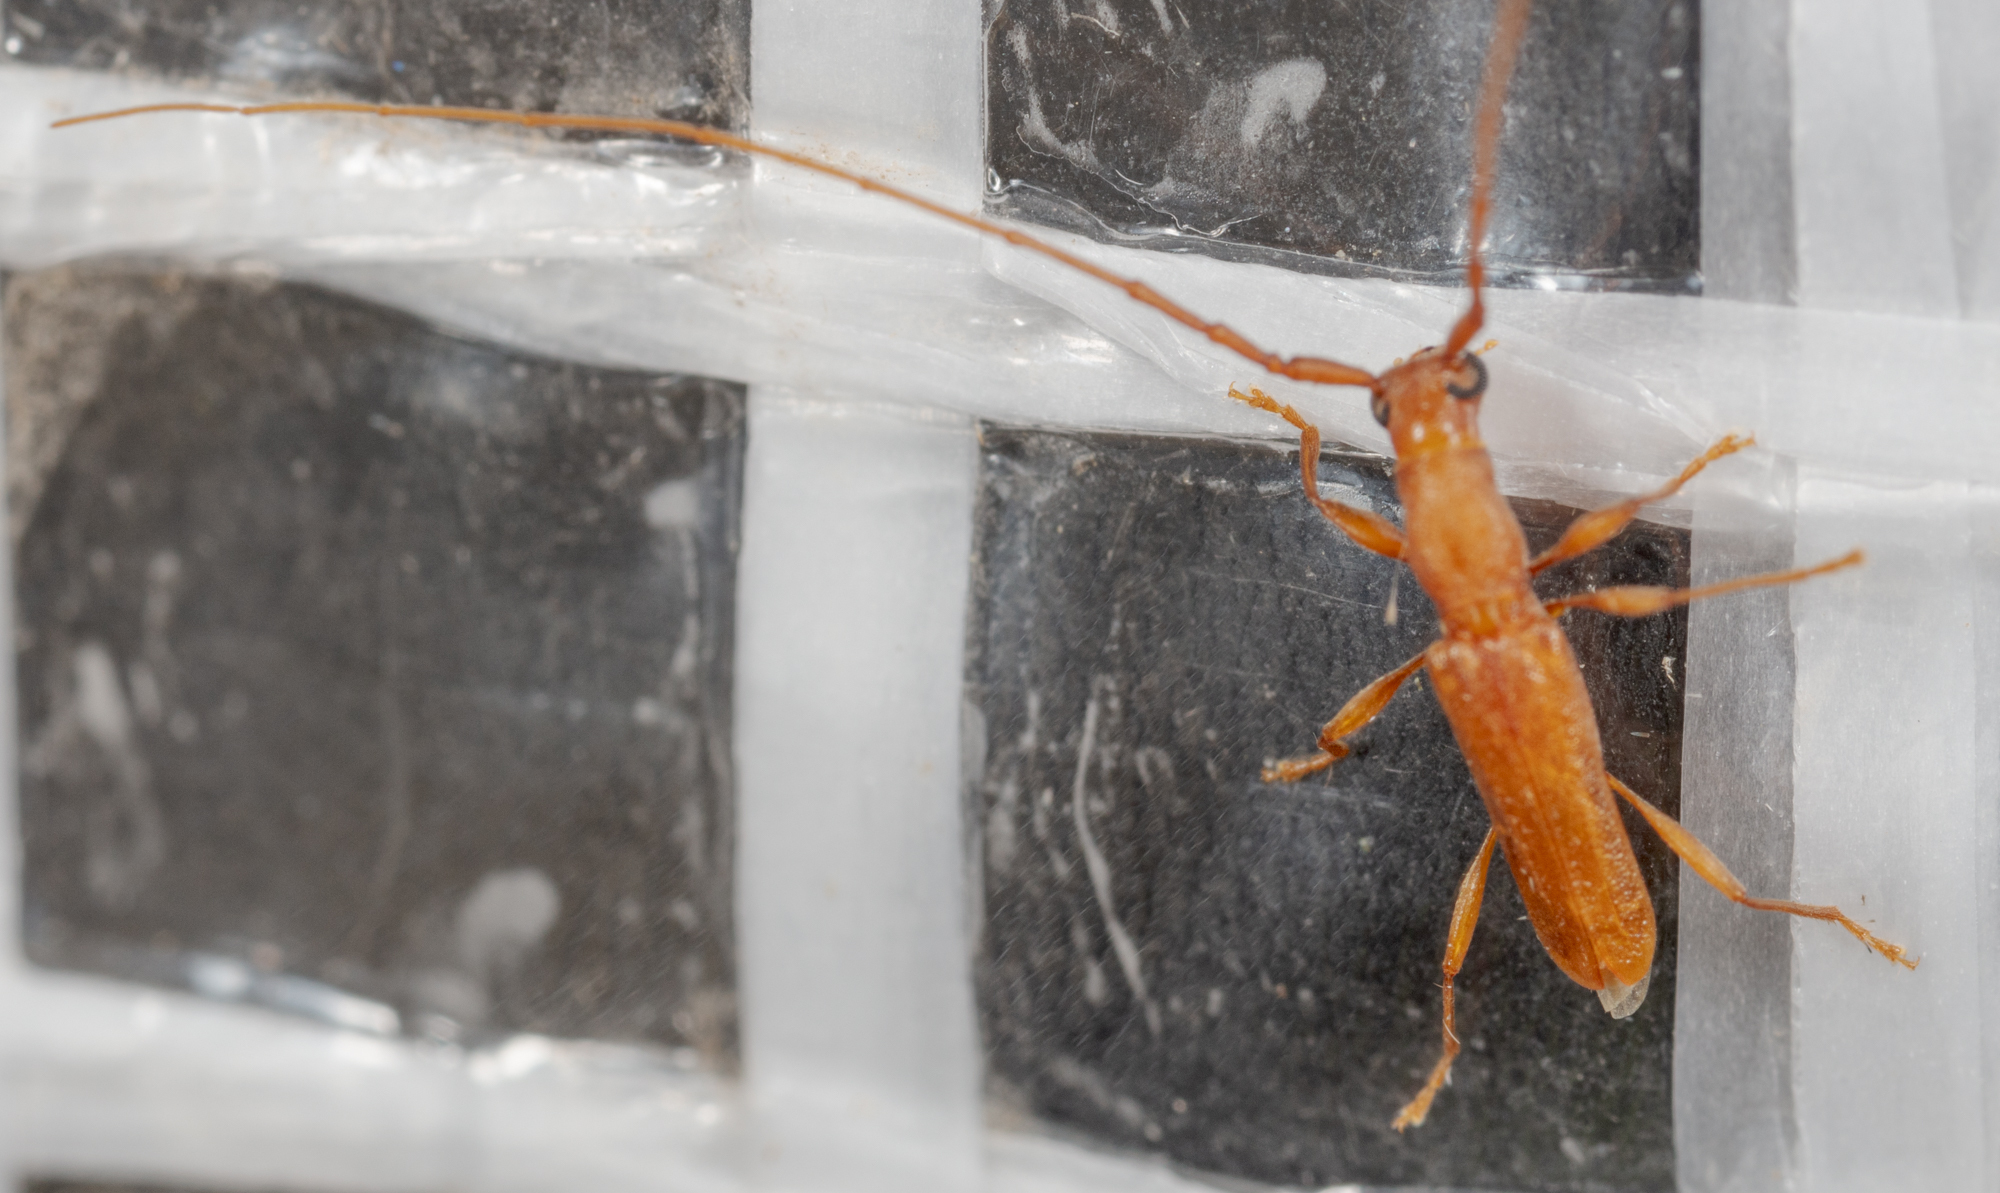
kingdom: Animalia
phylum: Arthropoda
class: Insecta
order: Coleoptera
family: Cerambycidae
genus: Hypexilis
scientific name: Hypexilis pallida
